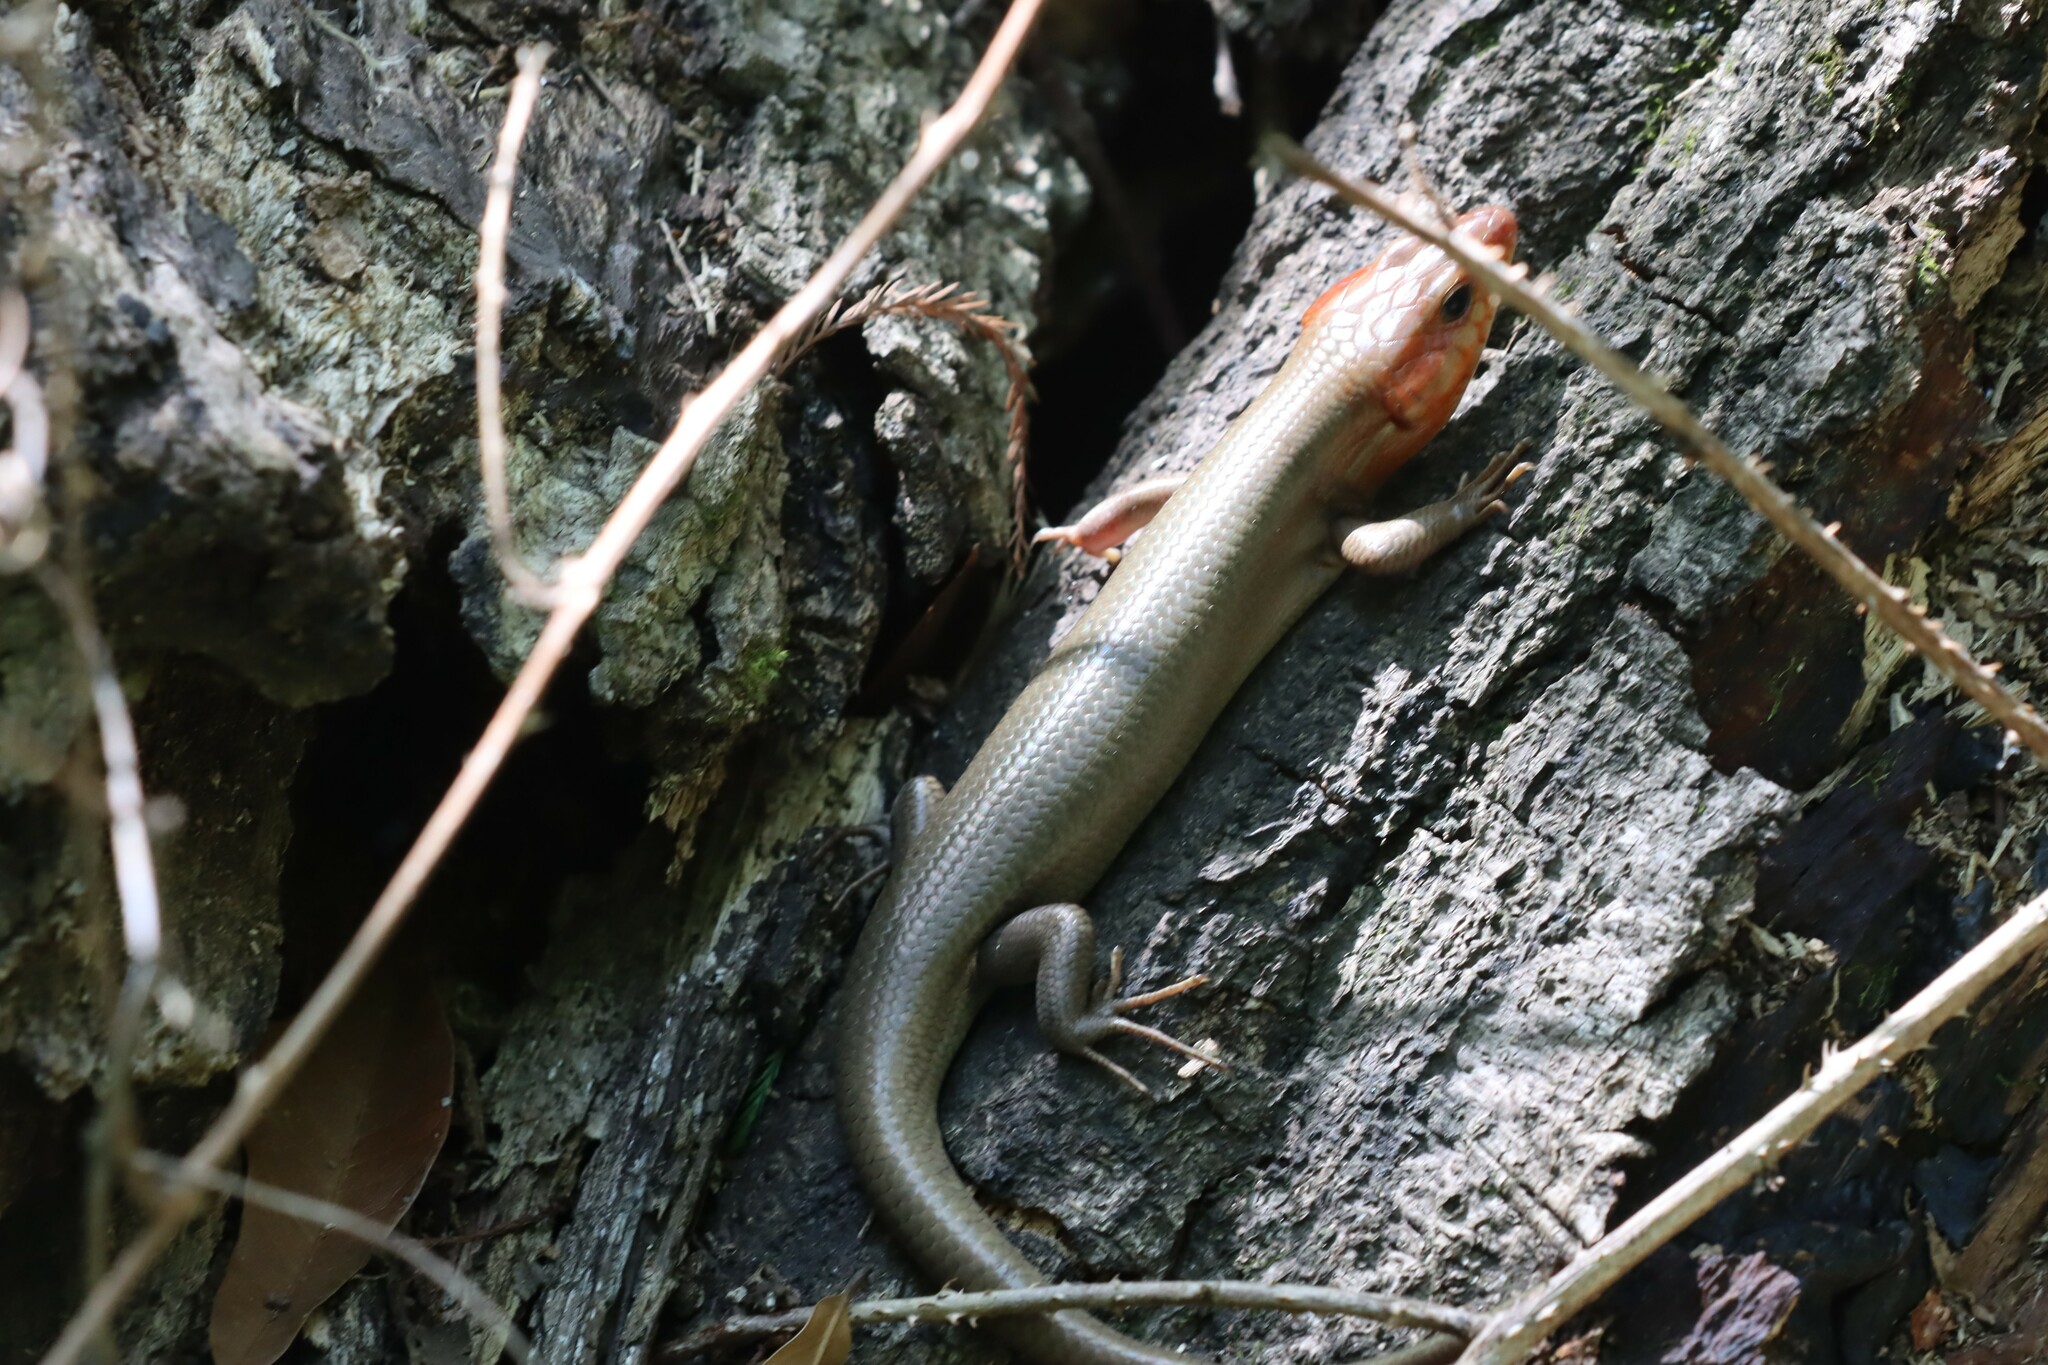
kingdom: Animalia
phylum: Chordata
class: Squamata
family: Scincidae
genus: Plestiodon
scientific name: Plestiodon laticeps
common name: Broadhead skink
